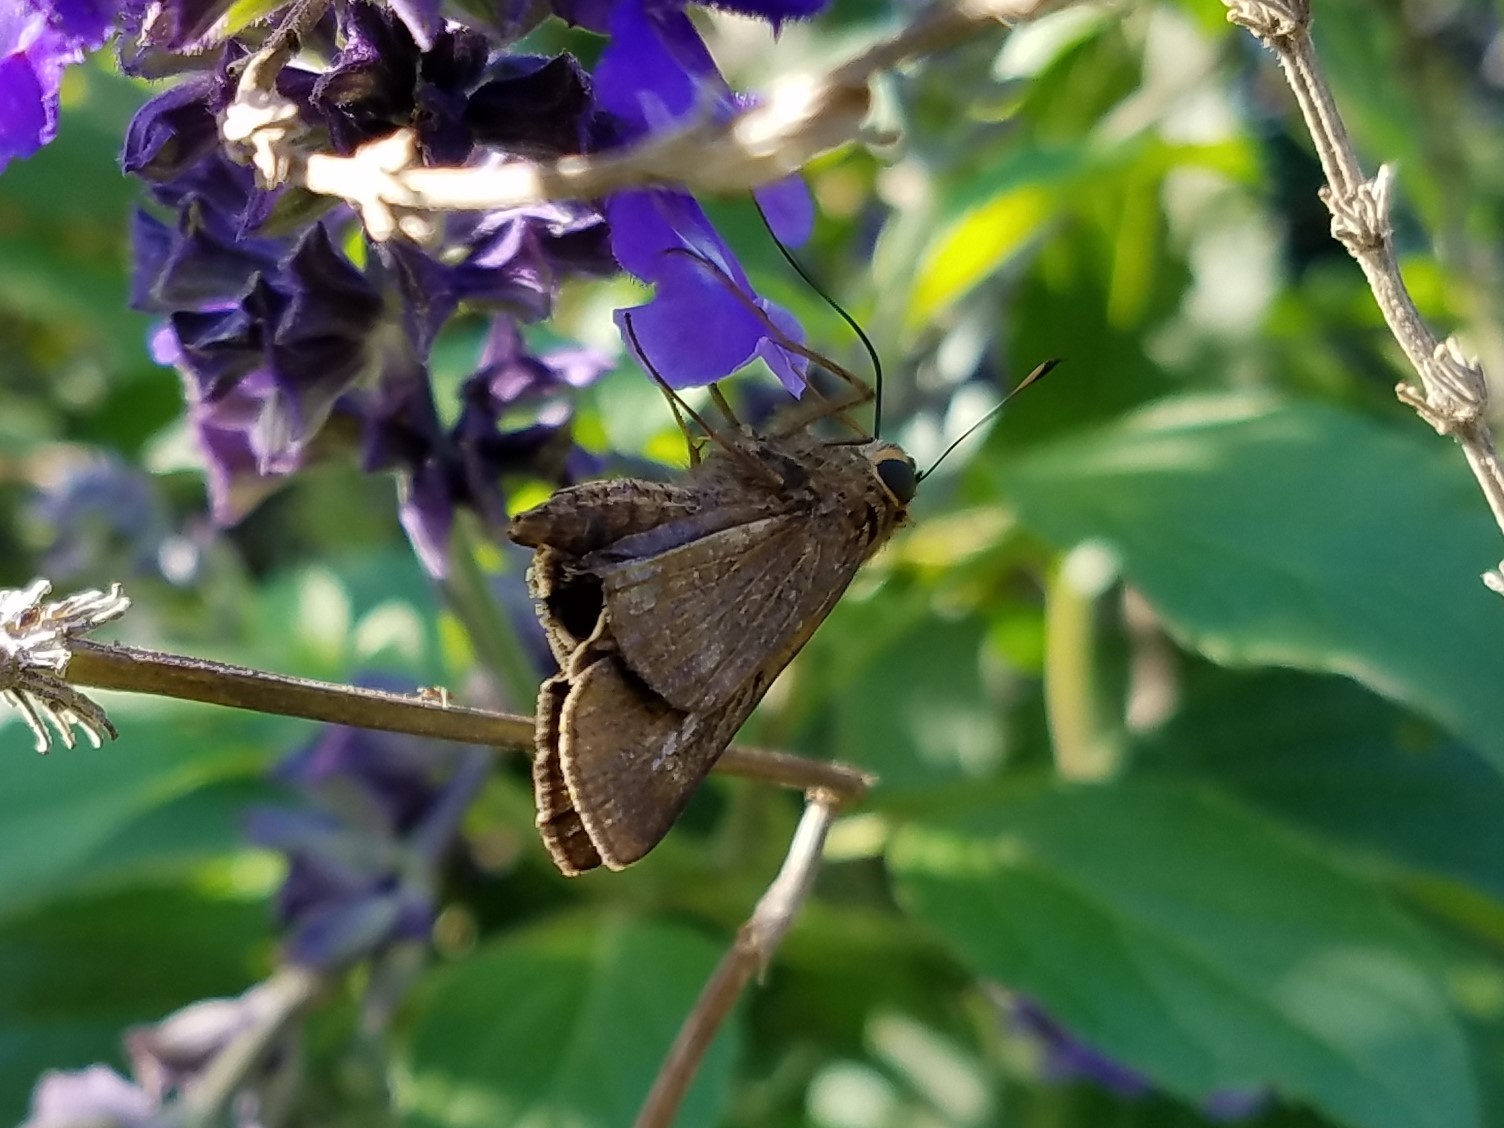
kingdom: Animalia
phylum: Arthropoda
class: Insecta
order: Lepidoptera
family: Hesperiidae
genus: Panoquina
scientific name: Panoquina ocola
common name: Ocola skipper
